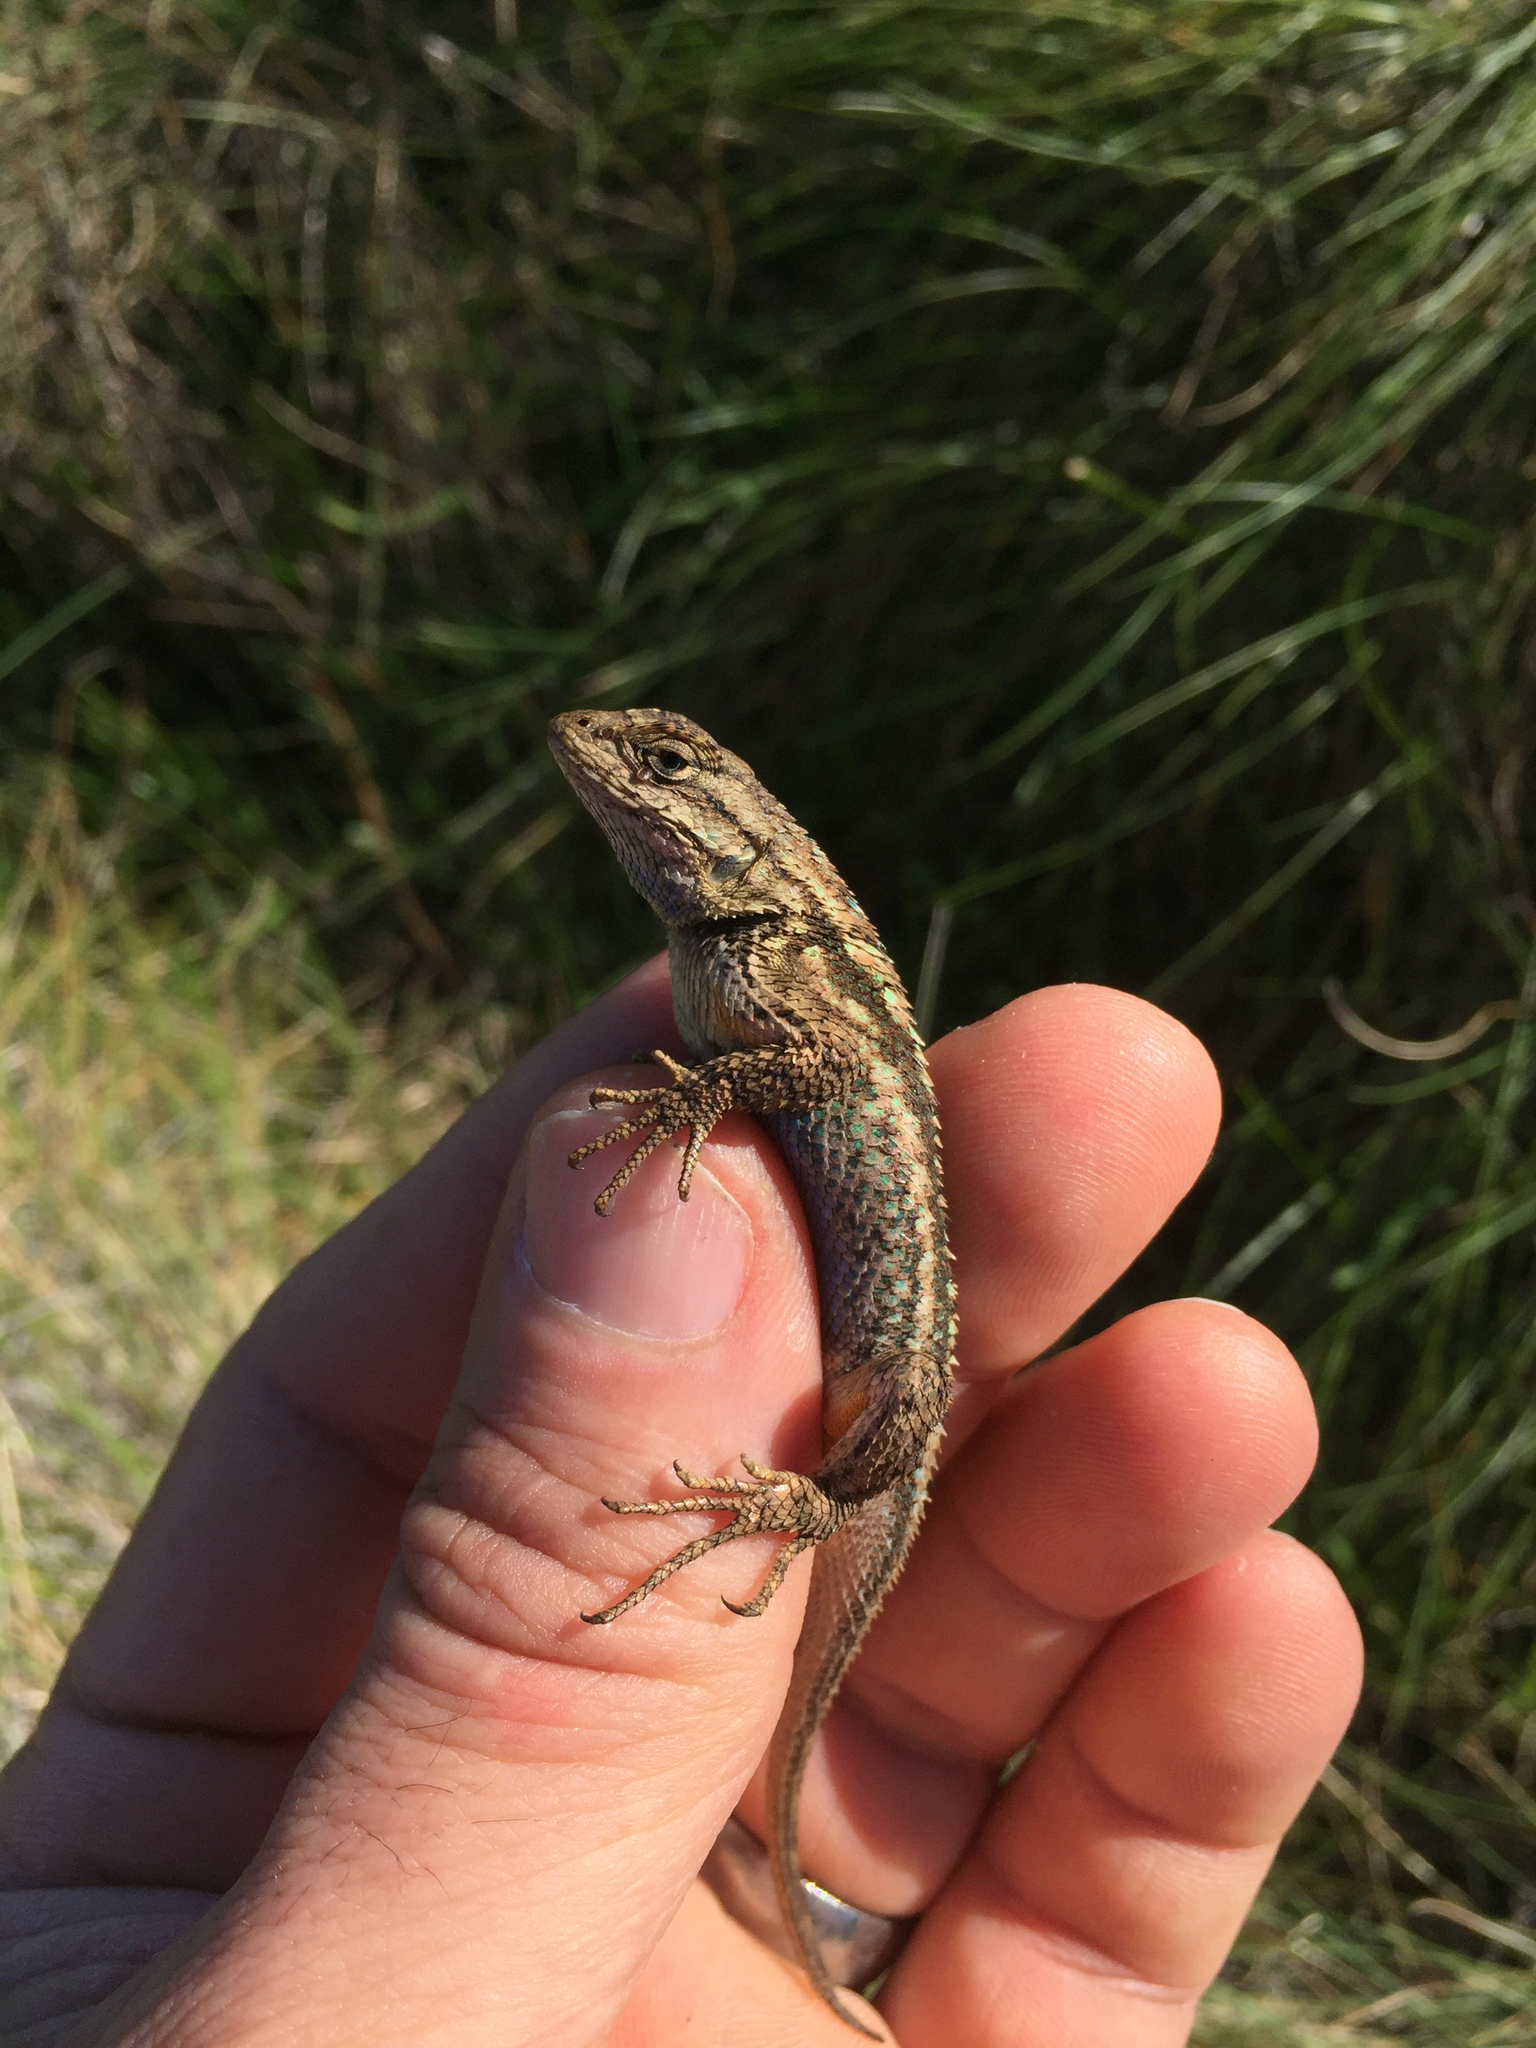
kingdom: Animalia
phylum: Chordata
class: Squamata
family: Phrynosomatidae
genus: Sceloporus
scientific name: Sceloporus occidentalis
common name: Western fence lizard
